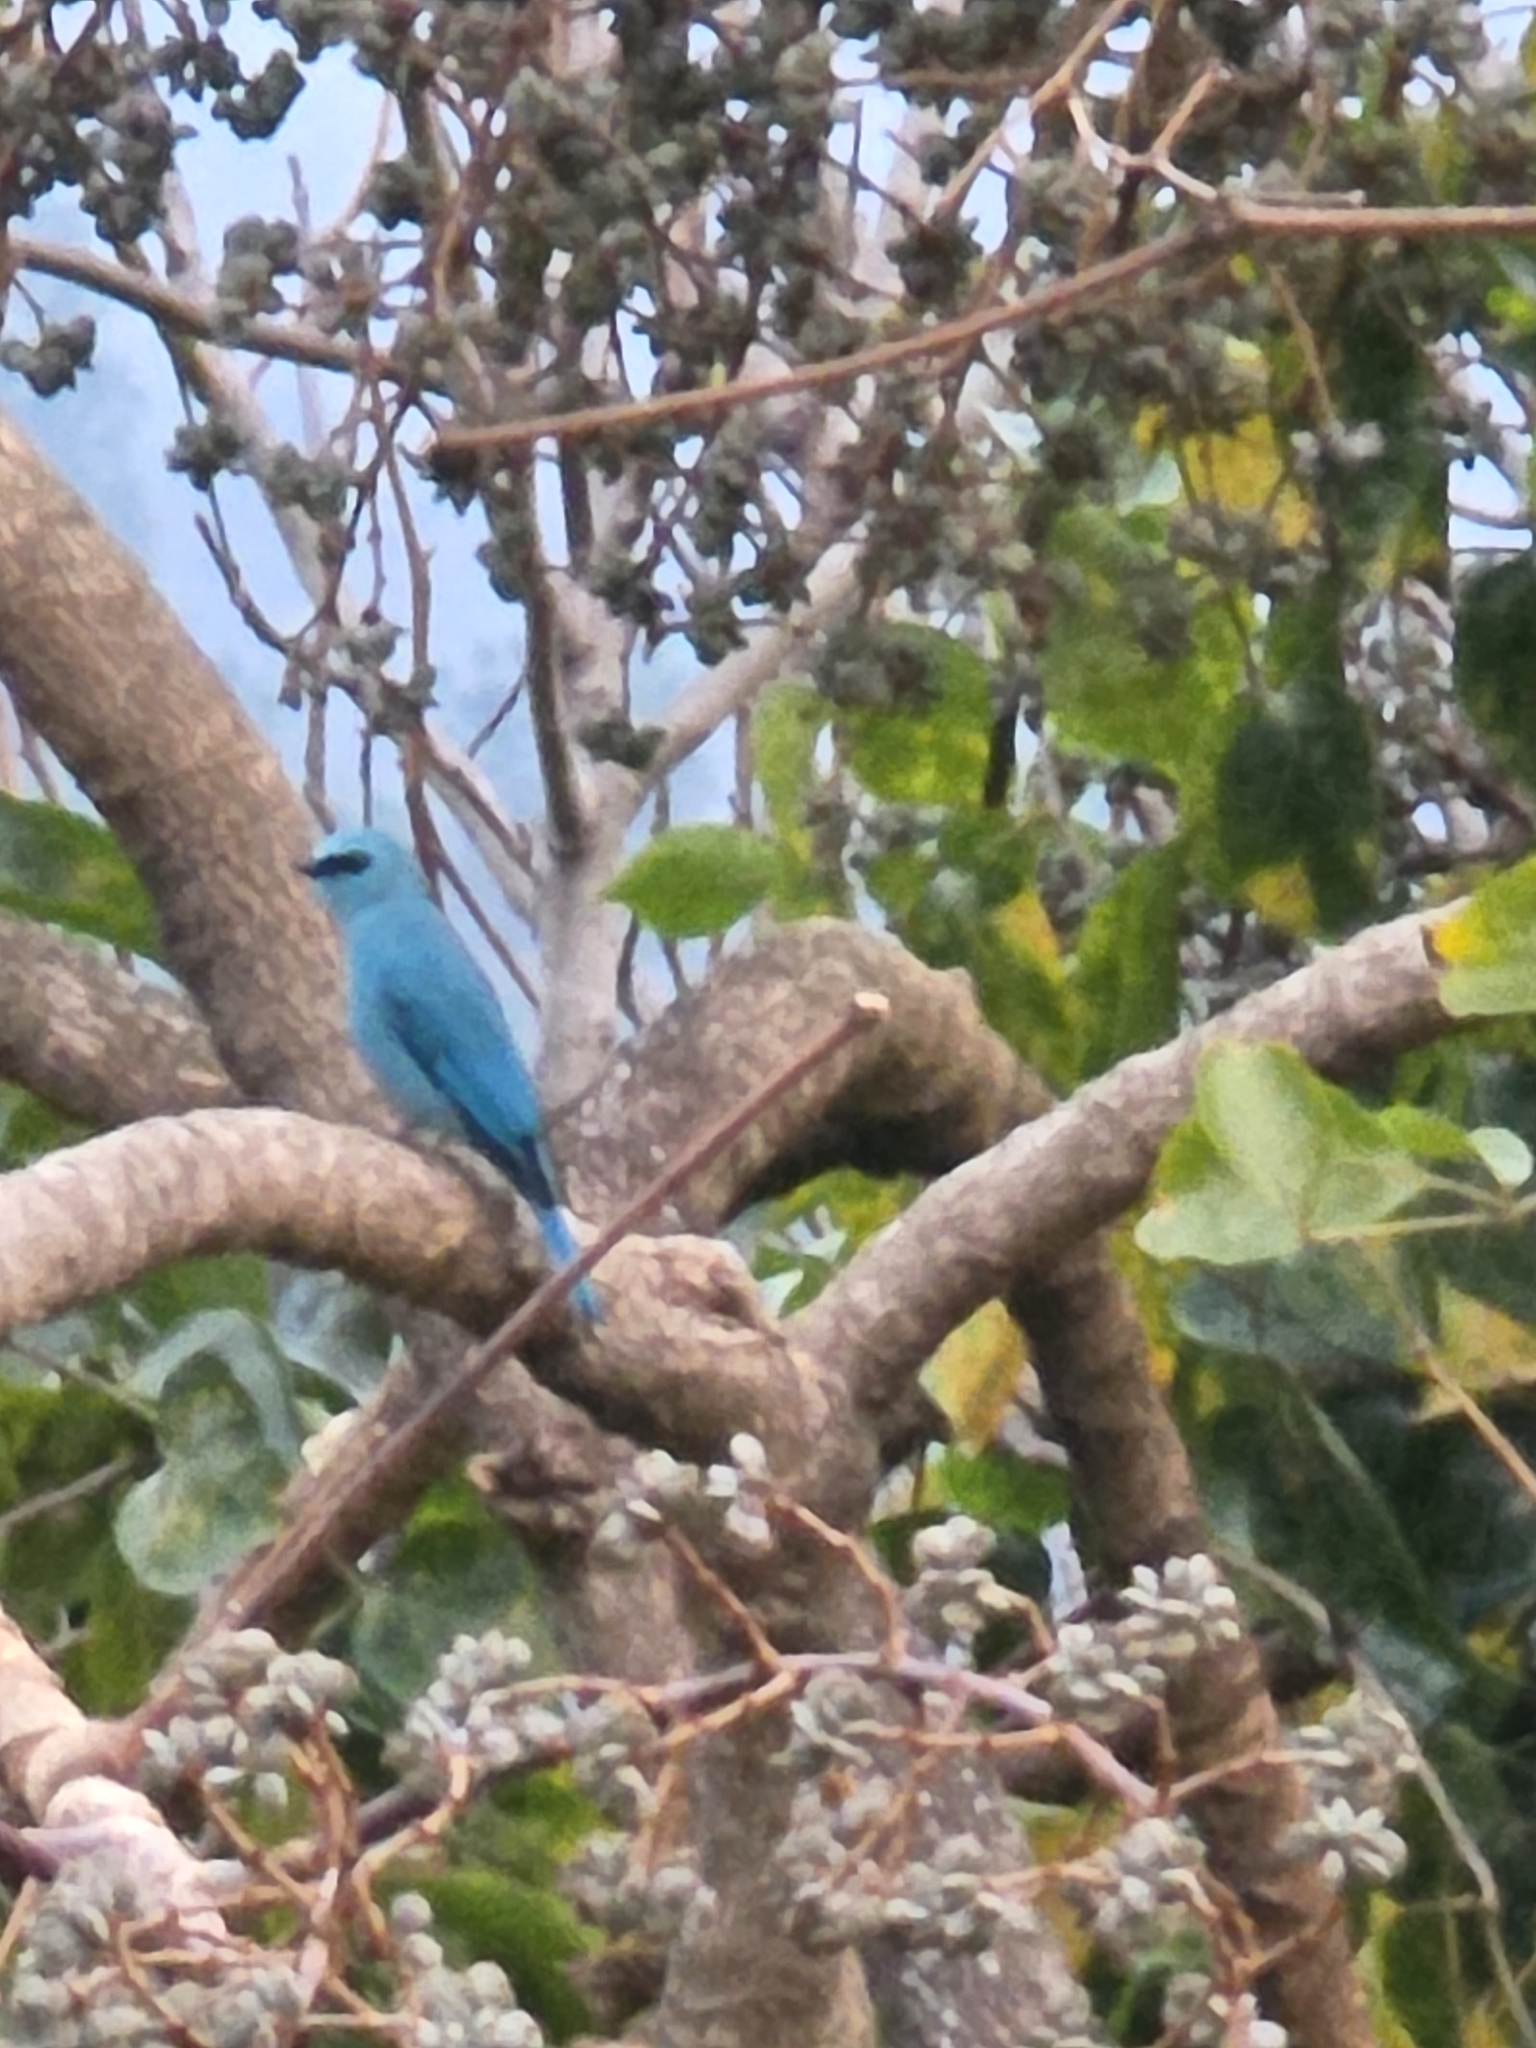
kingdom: Animalia
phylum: Chordata
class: Aves
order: Passeriformes
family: Muscicapidae
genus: Eumyias
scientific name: Eumyias thalassinus
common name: Verditer flycatcher
